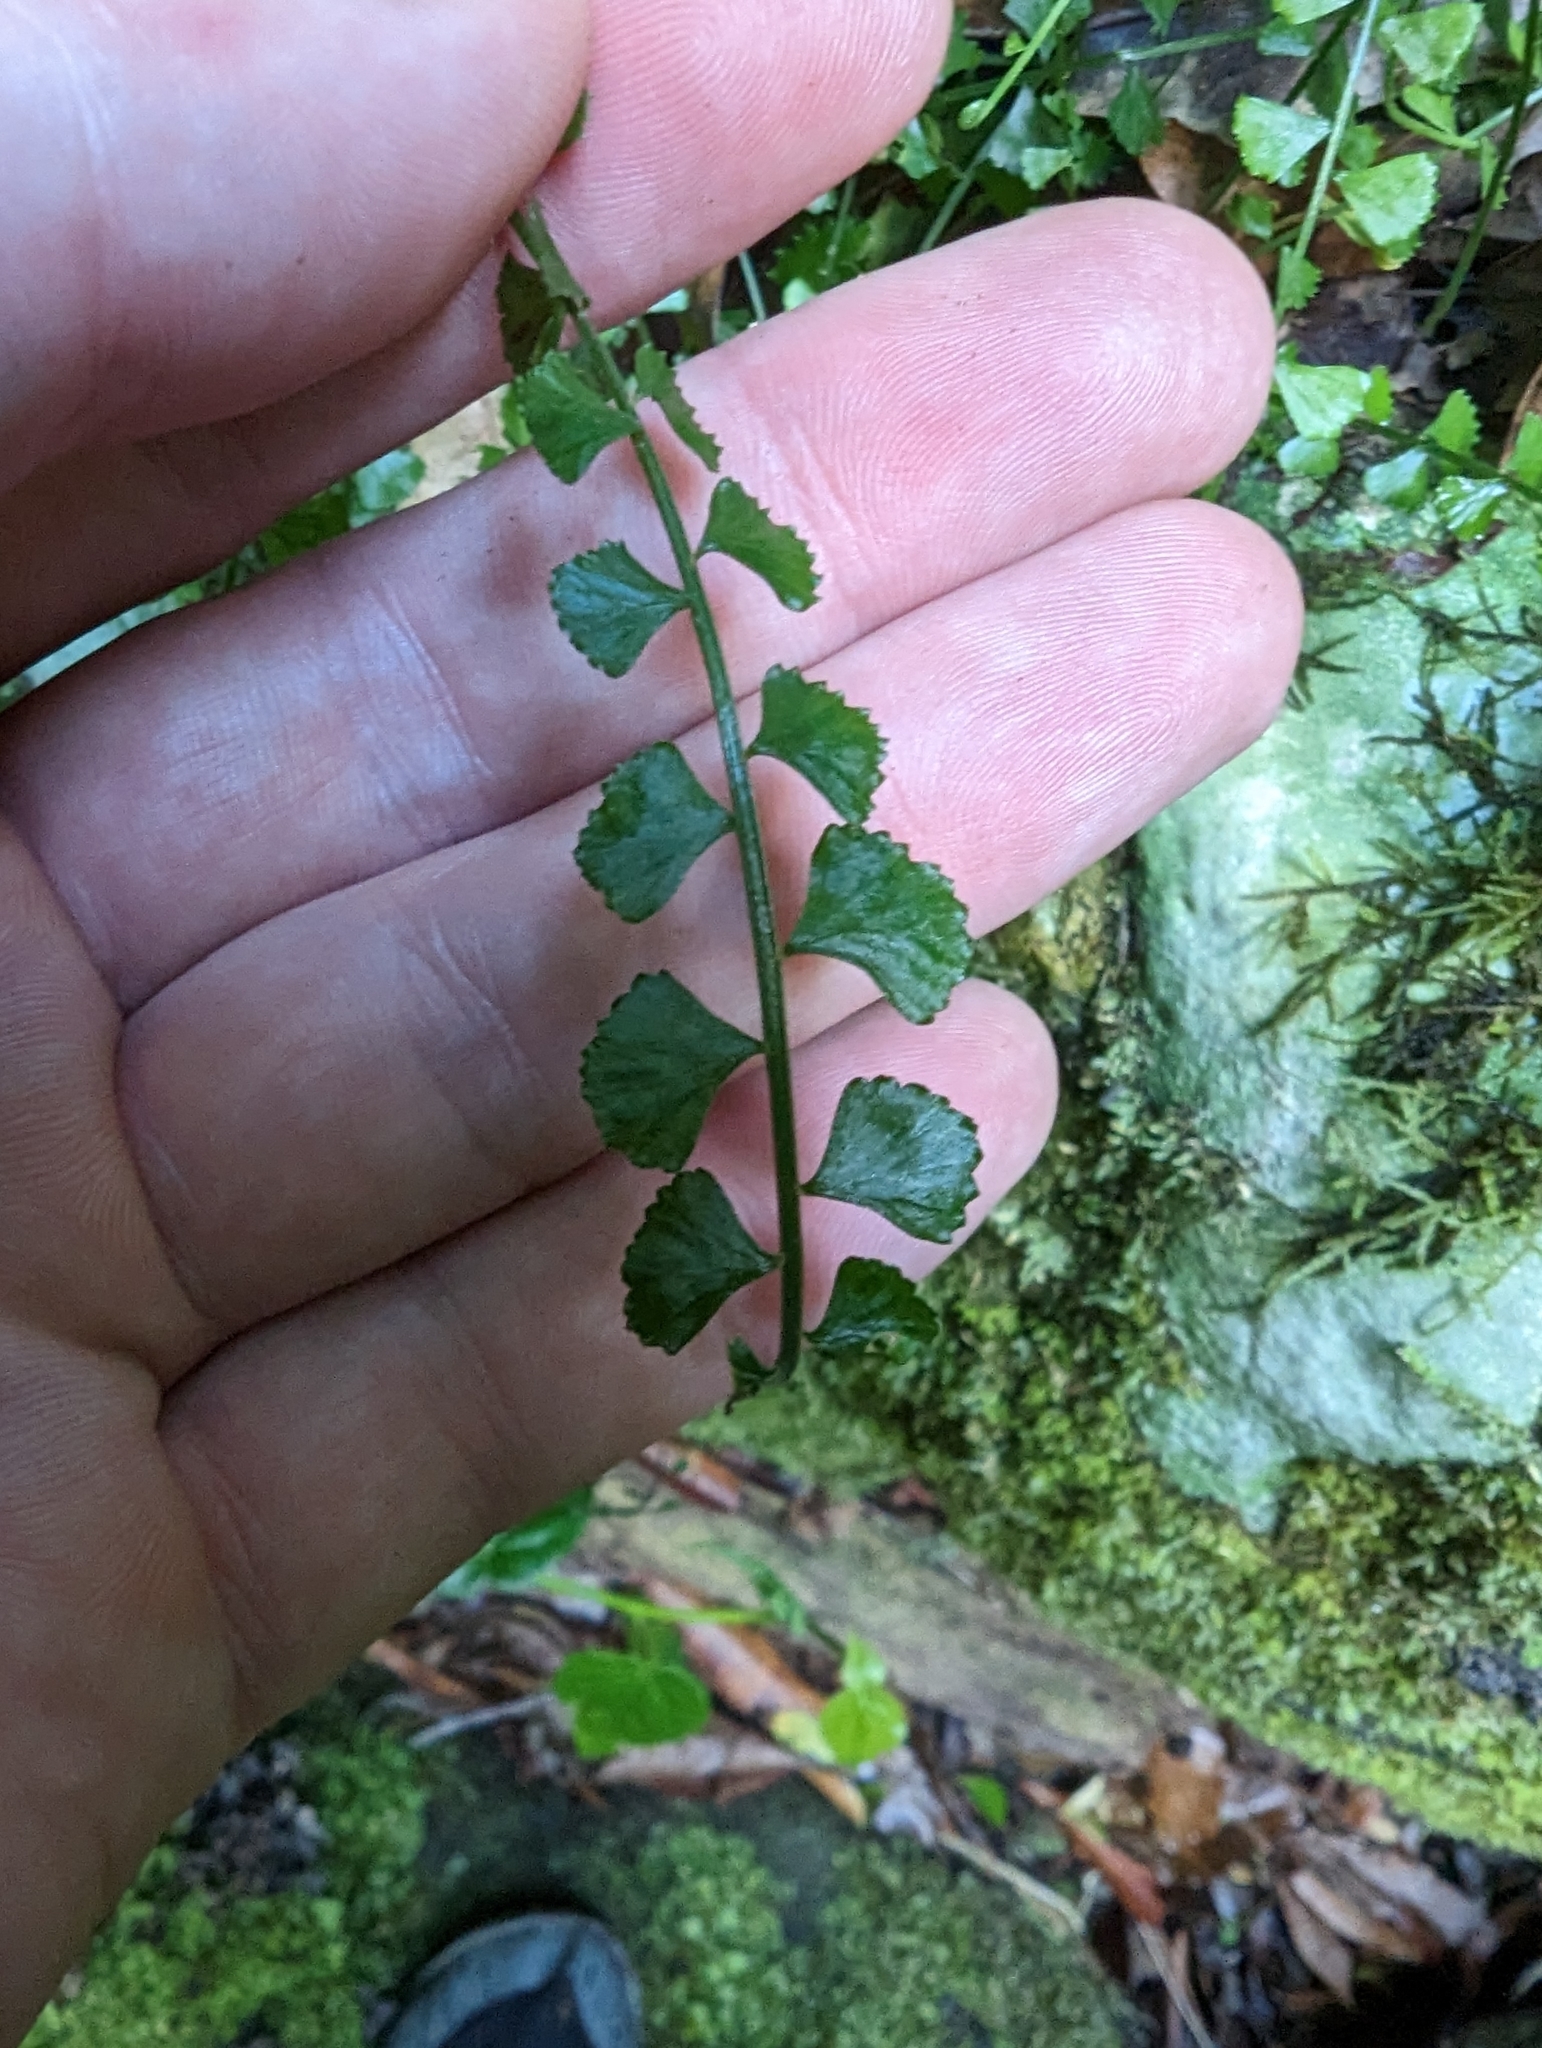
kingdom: Plantae
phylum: Tracheophyta
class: Polypodiopsida
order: Polypodiales
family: Aspleniaceae
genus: Asplenium
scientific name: Asplenium flabellifolium
